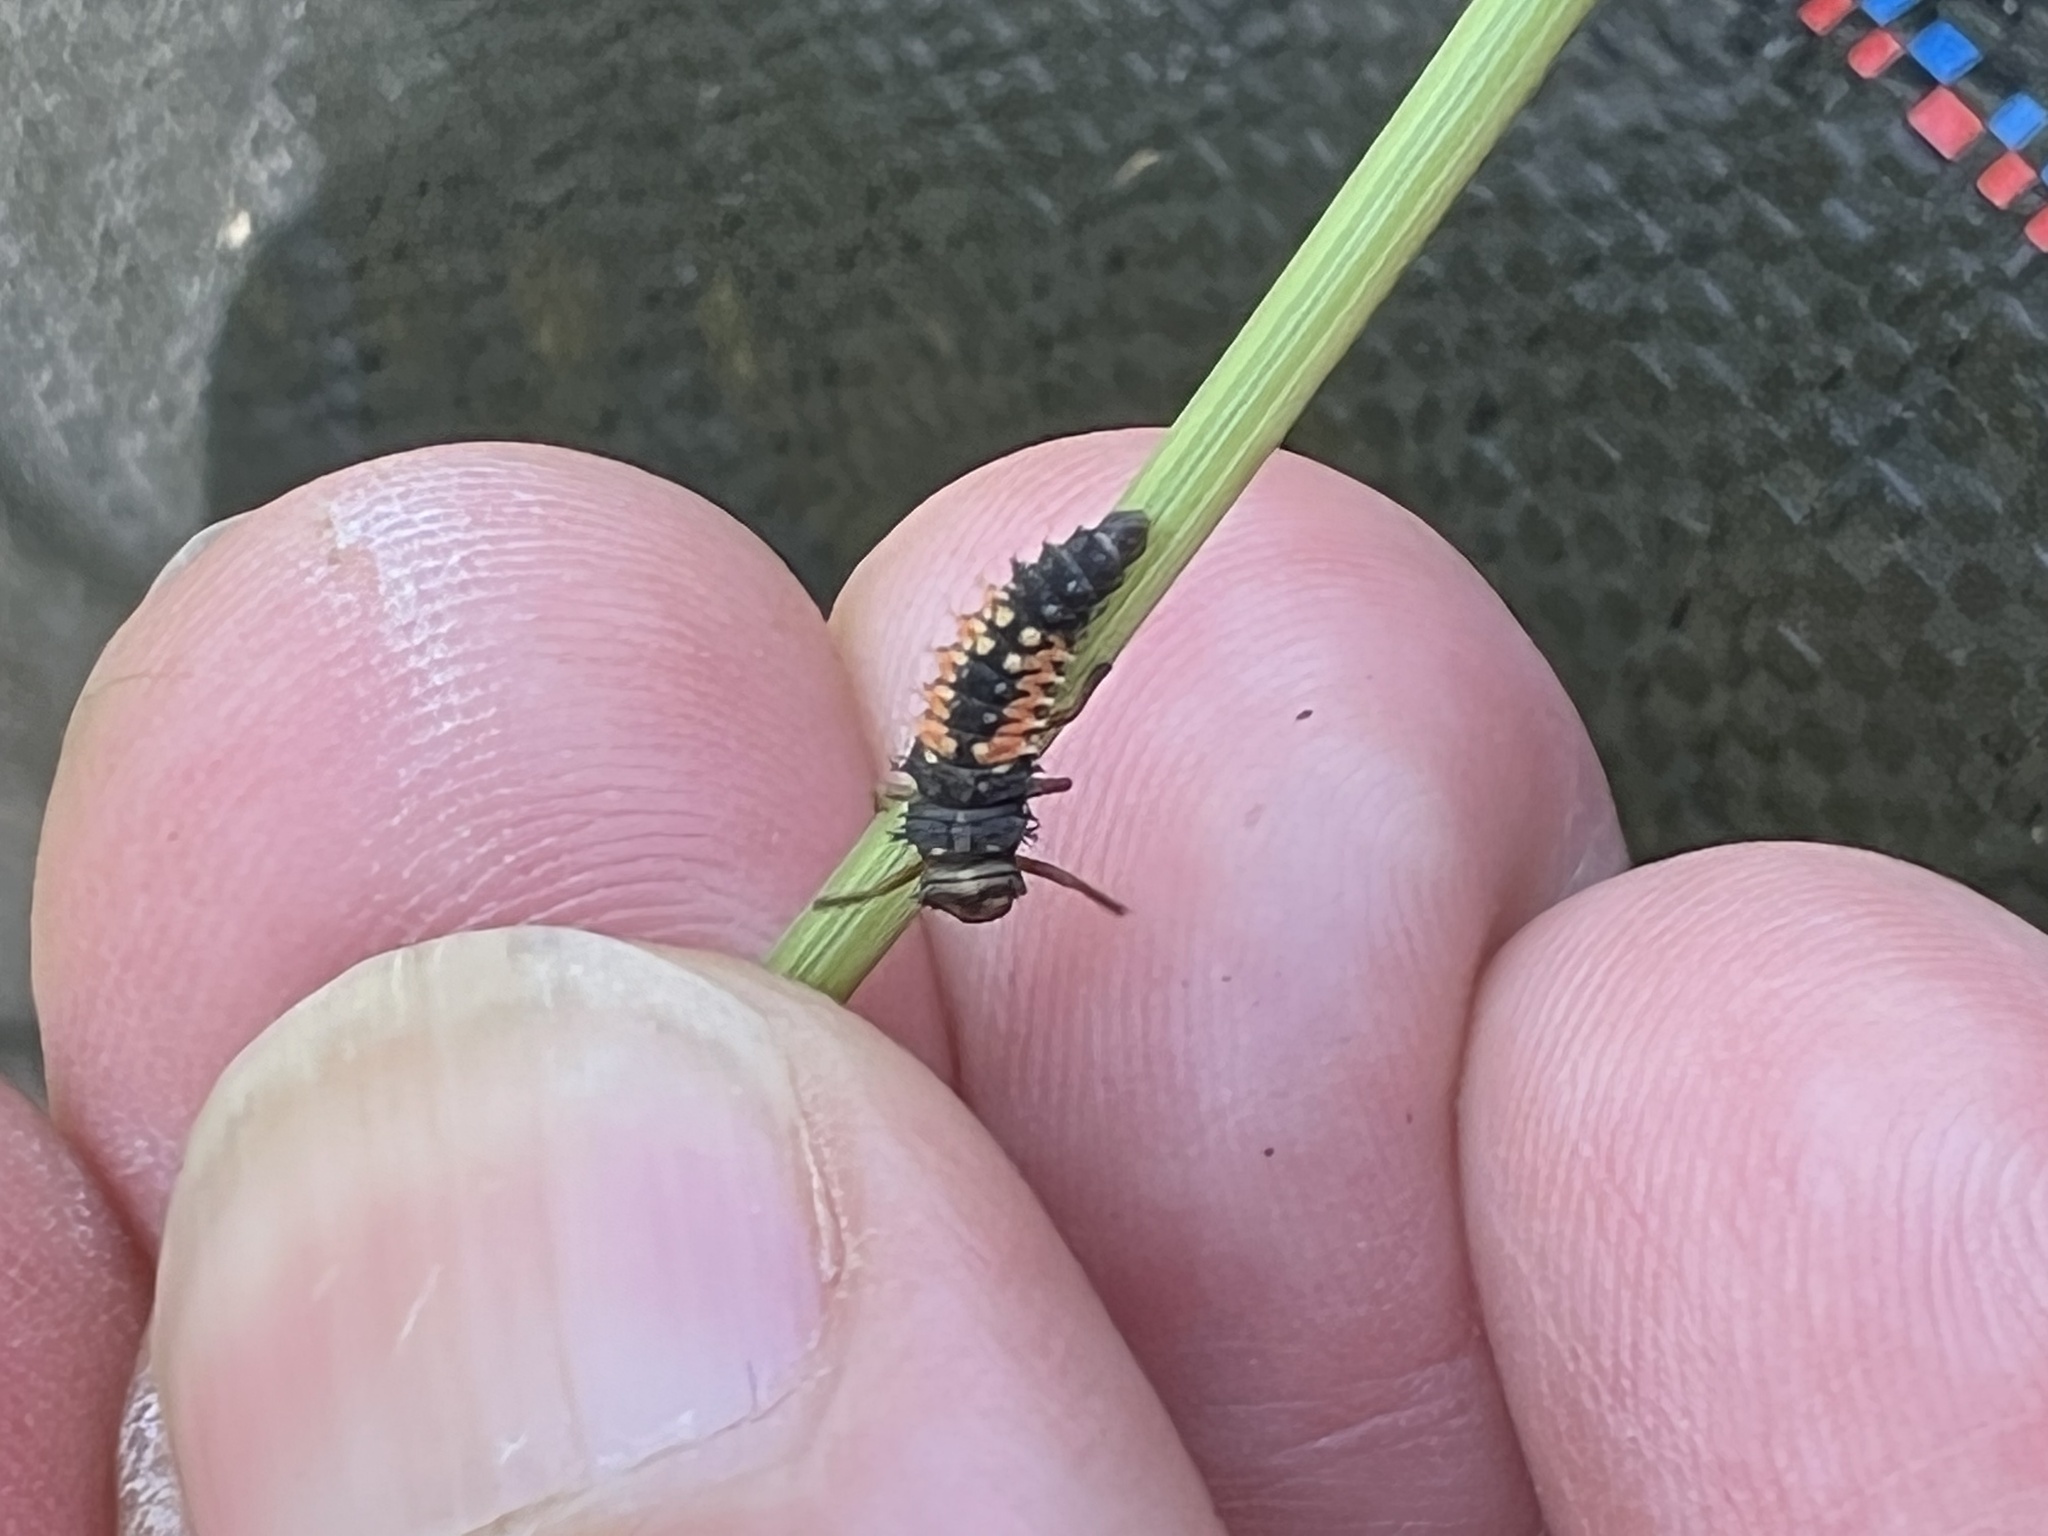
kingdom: Animalia
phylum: Arthropoda
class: Insecta
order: Coleoptera
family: Coccinellidae
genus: Harmonia
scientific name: Harmonia axyridis
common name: Harlequin ladybird
